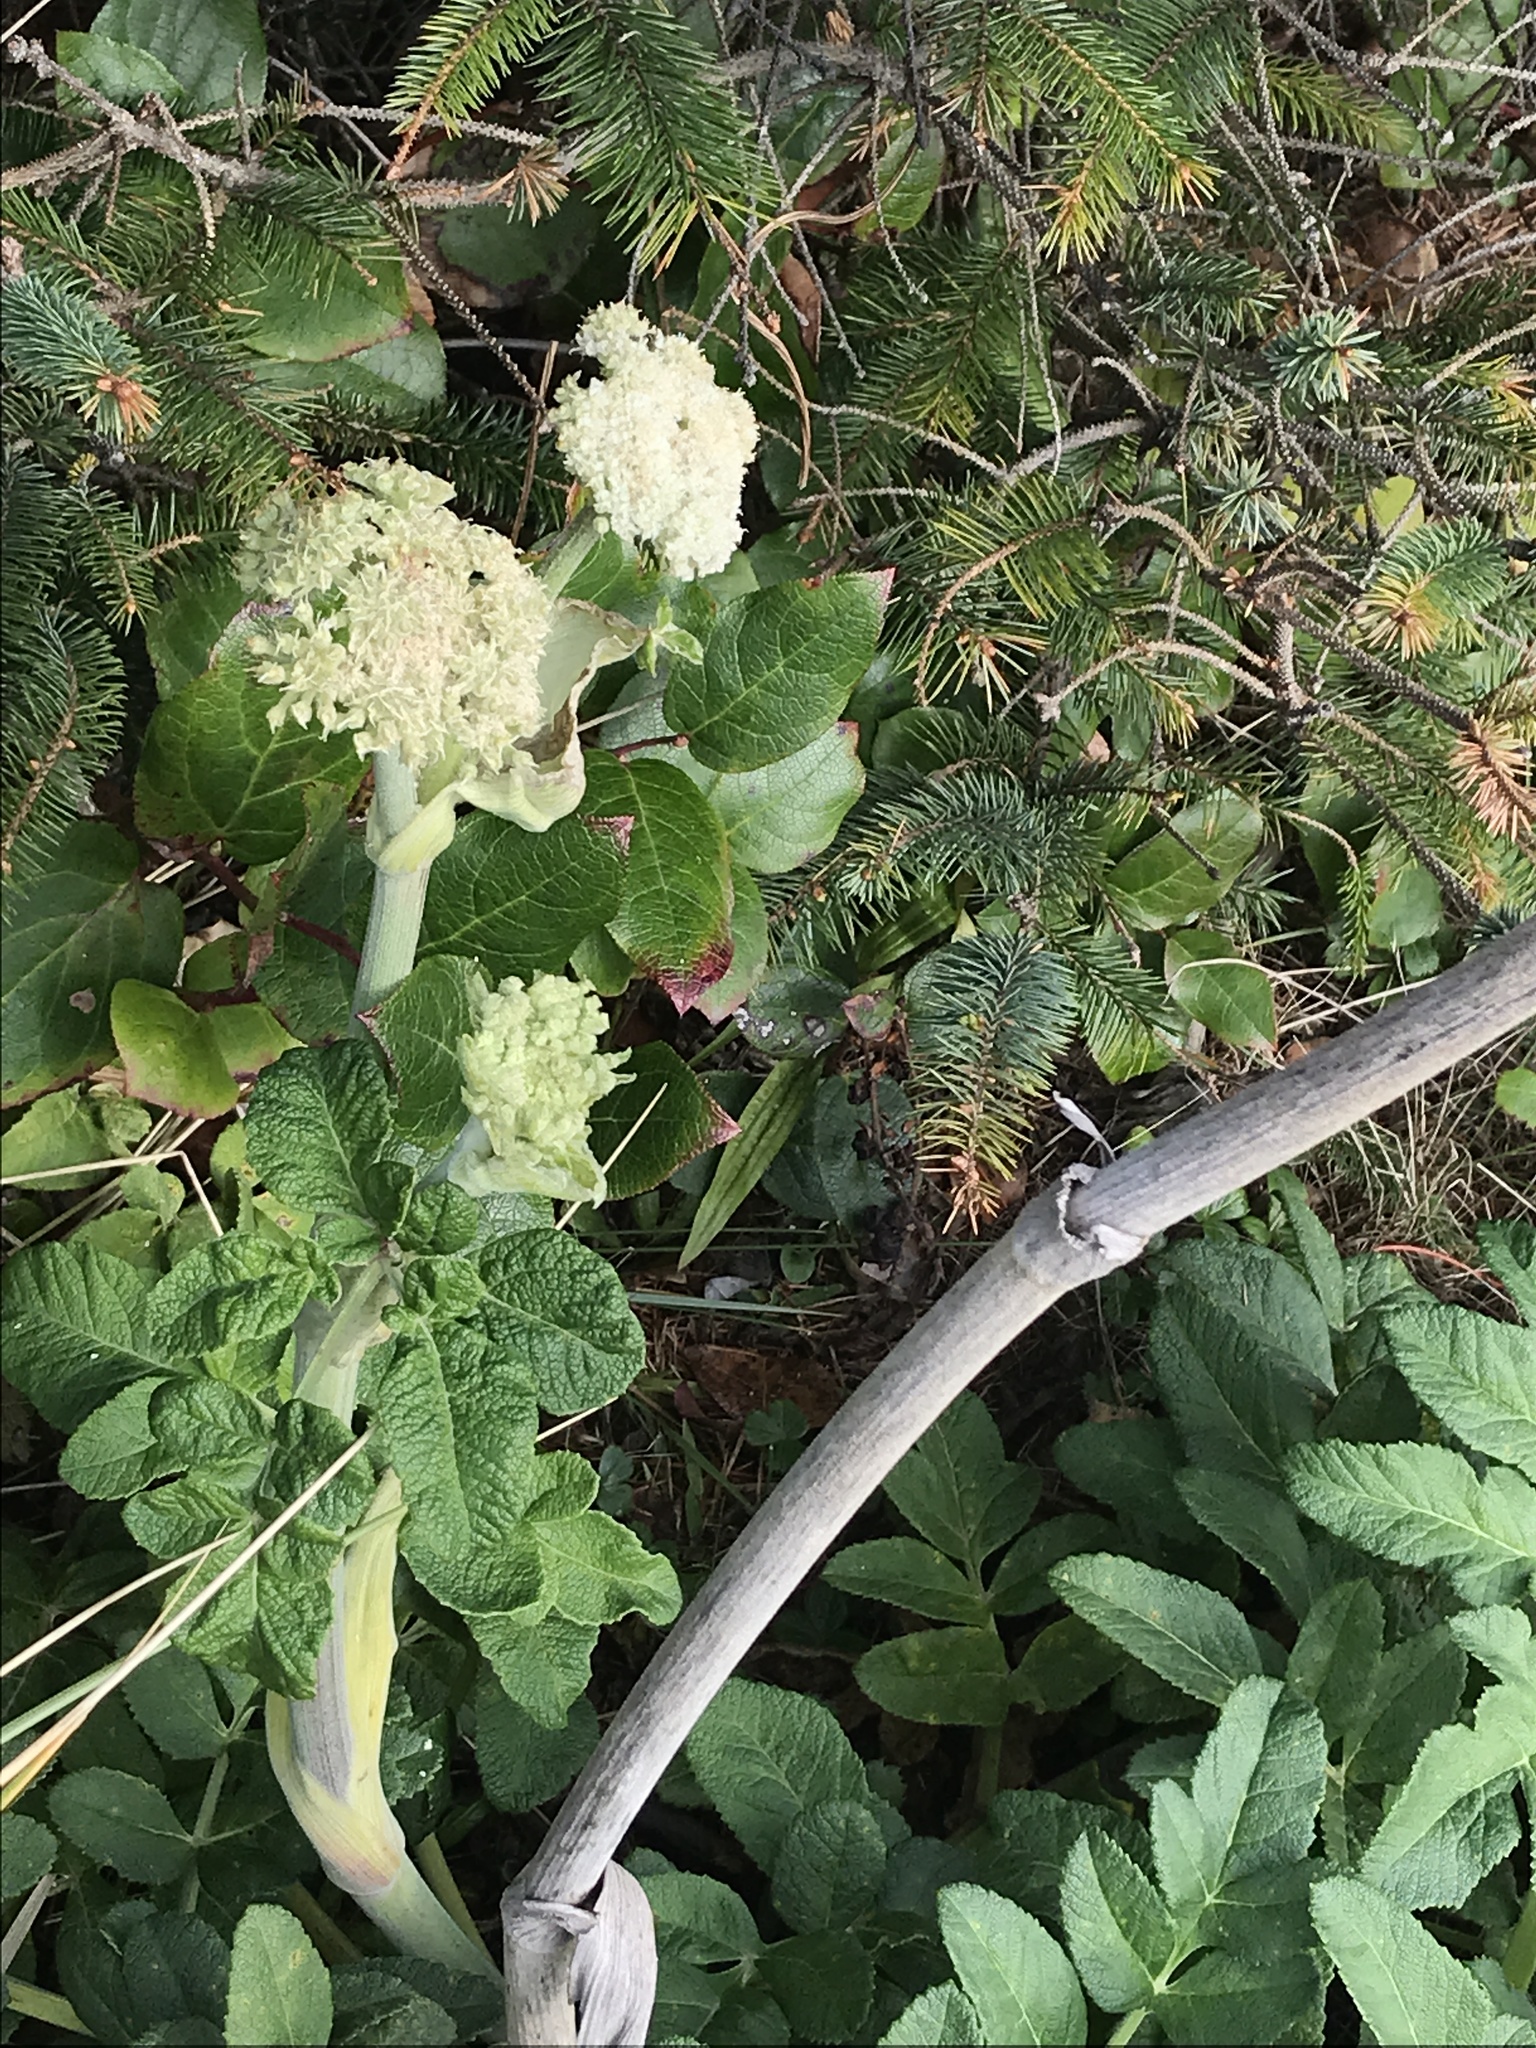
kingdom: Plantae
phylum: Tracheophyta
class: Magnoliopsida
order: Apiales
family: Apiaceae
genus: Angelica
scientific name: Angelica hendersonii
